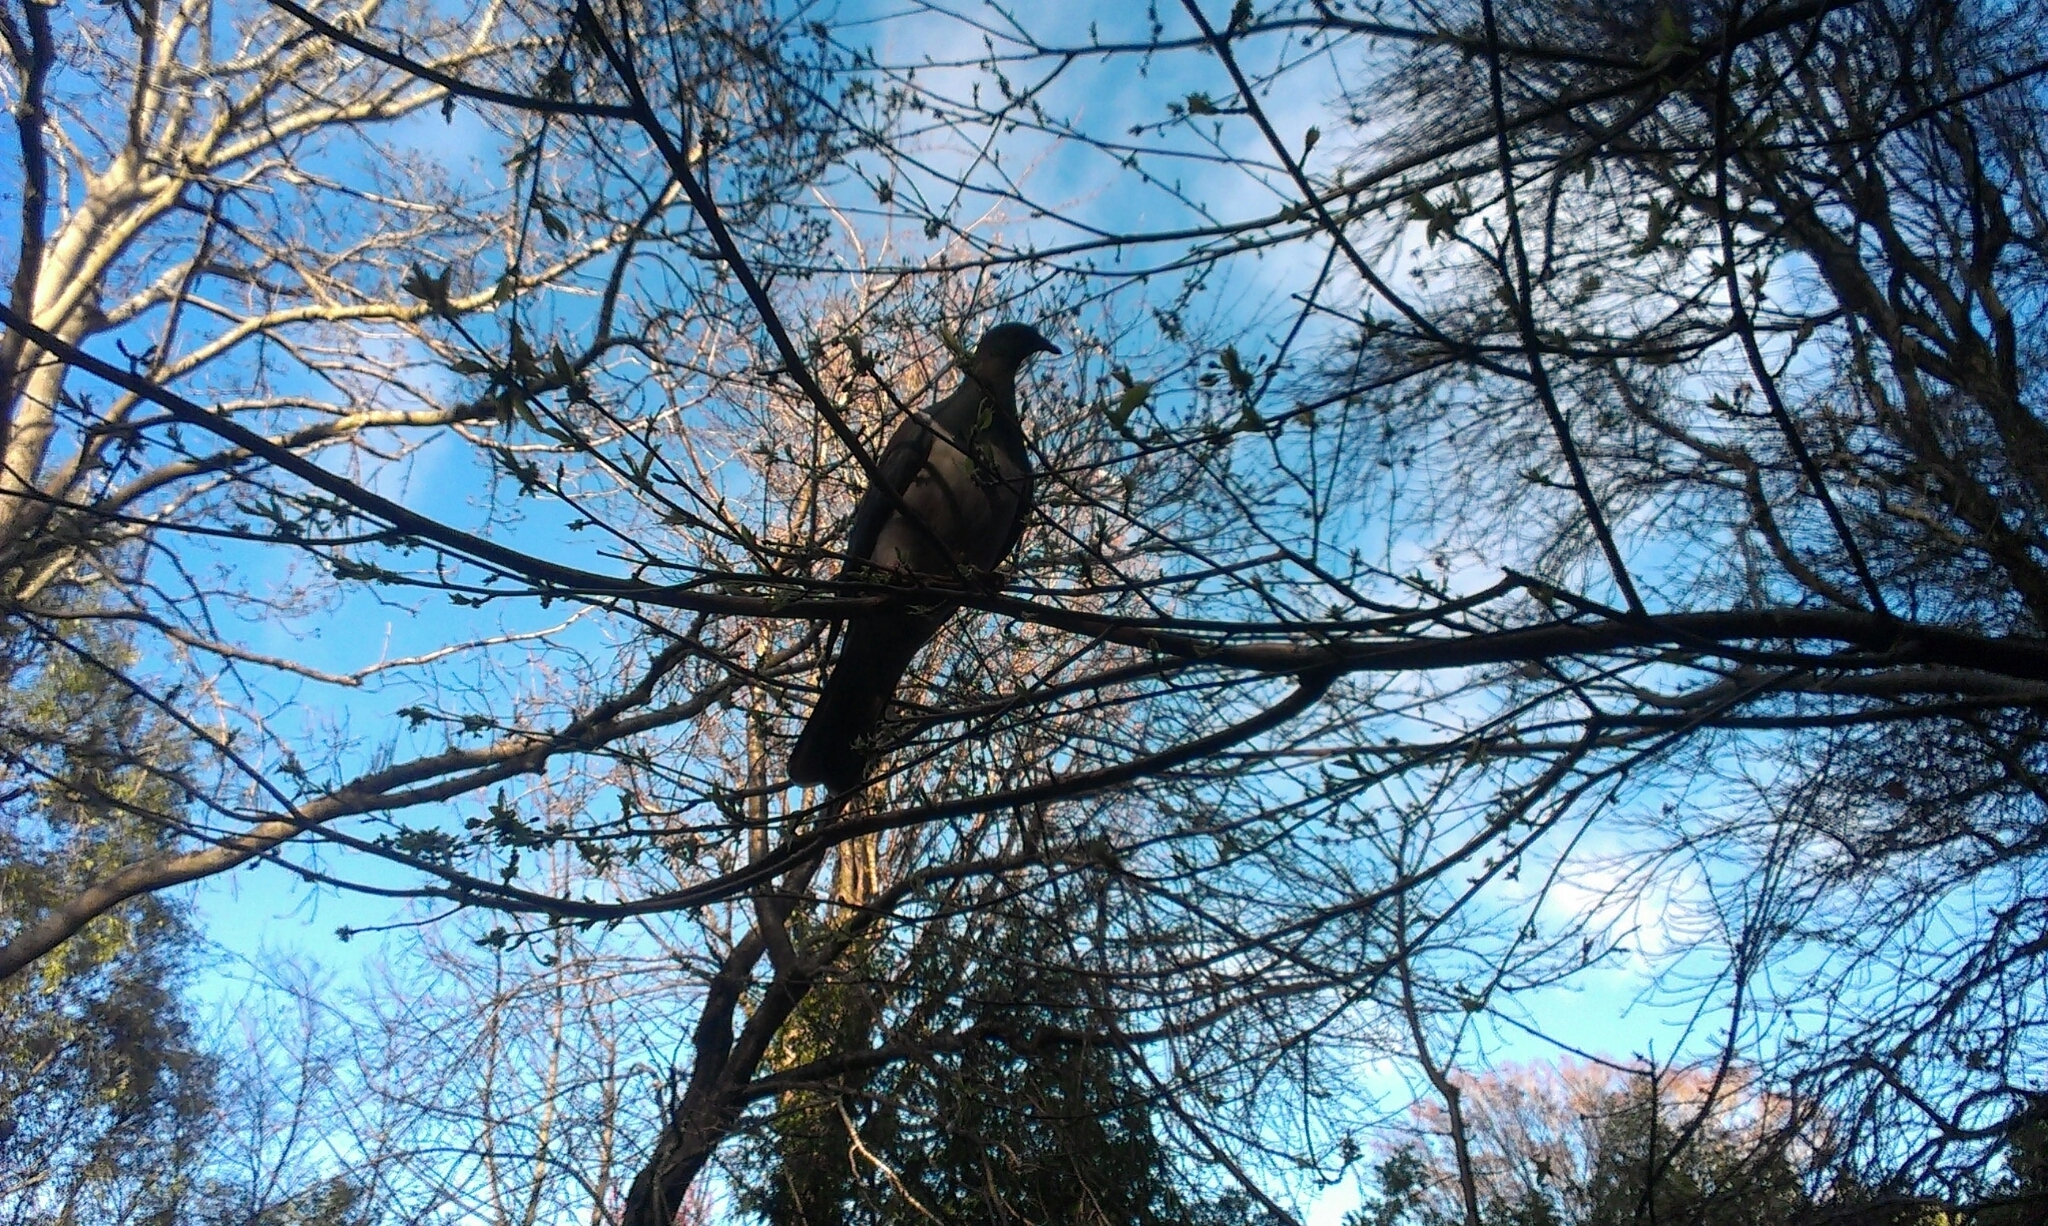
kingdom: Animalia
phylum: Chordata
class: Aves
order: Columbiformes
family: Columbidae
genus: Hemiphaga
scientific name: Hemiphaga novaeseelandiae
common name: New zealand pigeon
